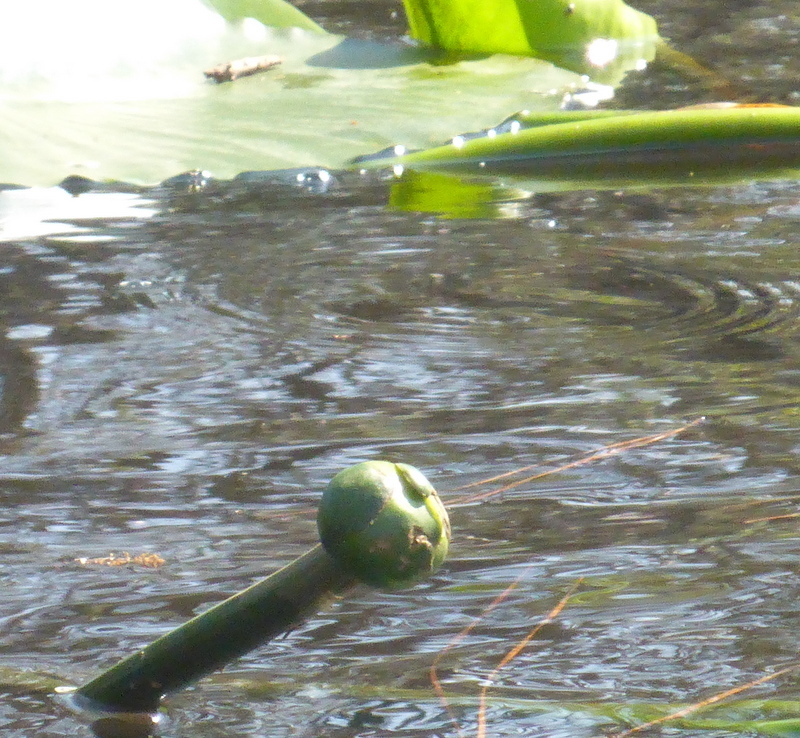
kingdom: Plantae
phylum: Tracheophyta
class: Magnoliopsida
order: Nymphaeales
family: Nymphaeaceae
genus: Nuphar
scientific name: Nuphar advena
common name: Spatter-dock
